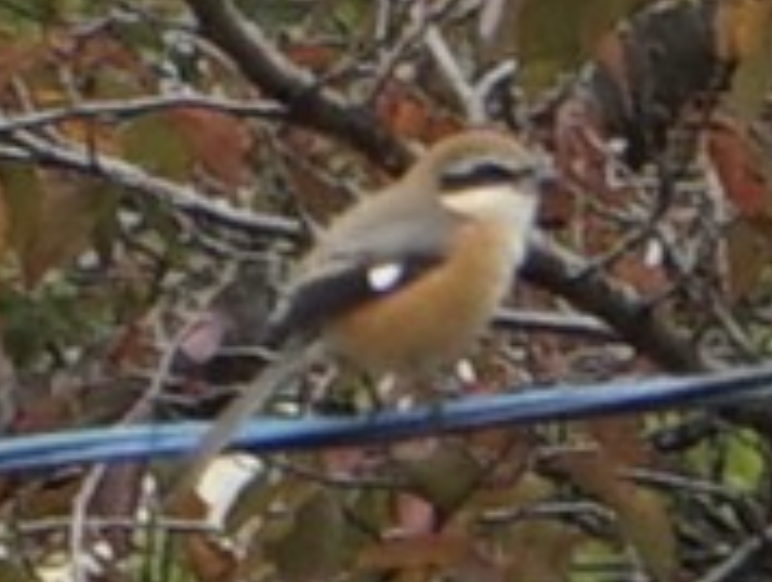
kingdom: Animalia
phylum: Chordata
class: Aves
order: Passeriformes
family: Laniidae
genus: Lanius
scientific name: Lanius bucephalus
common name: Bull-headed shrike
